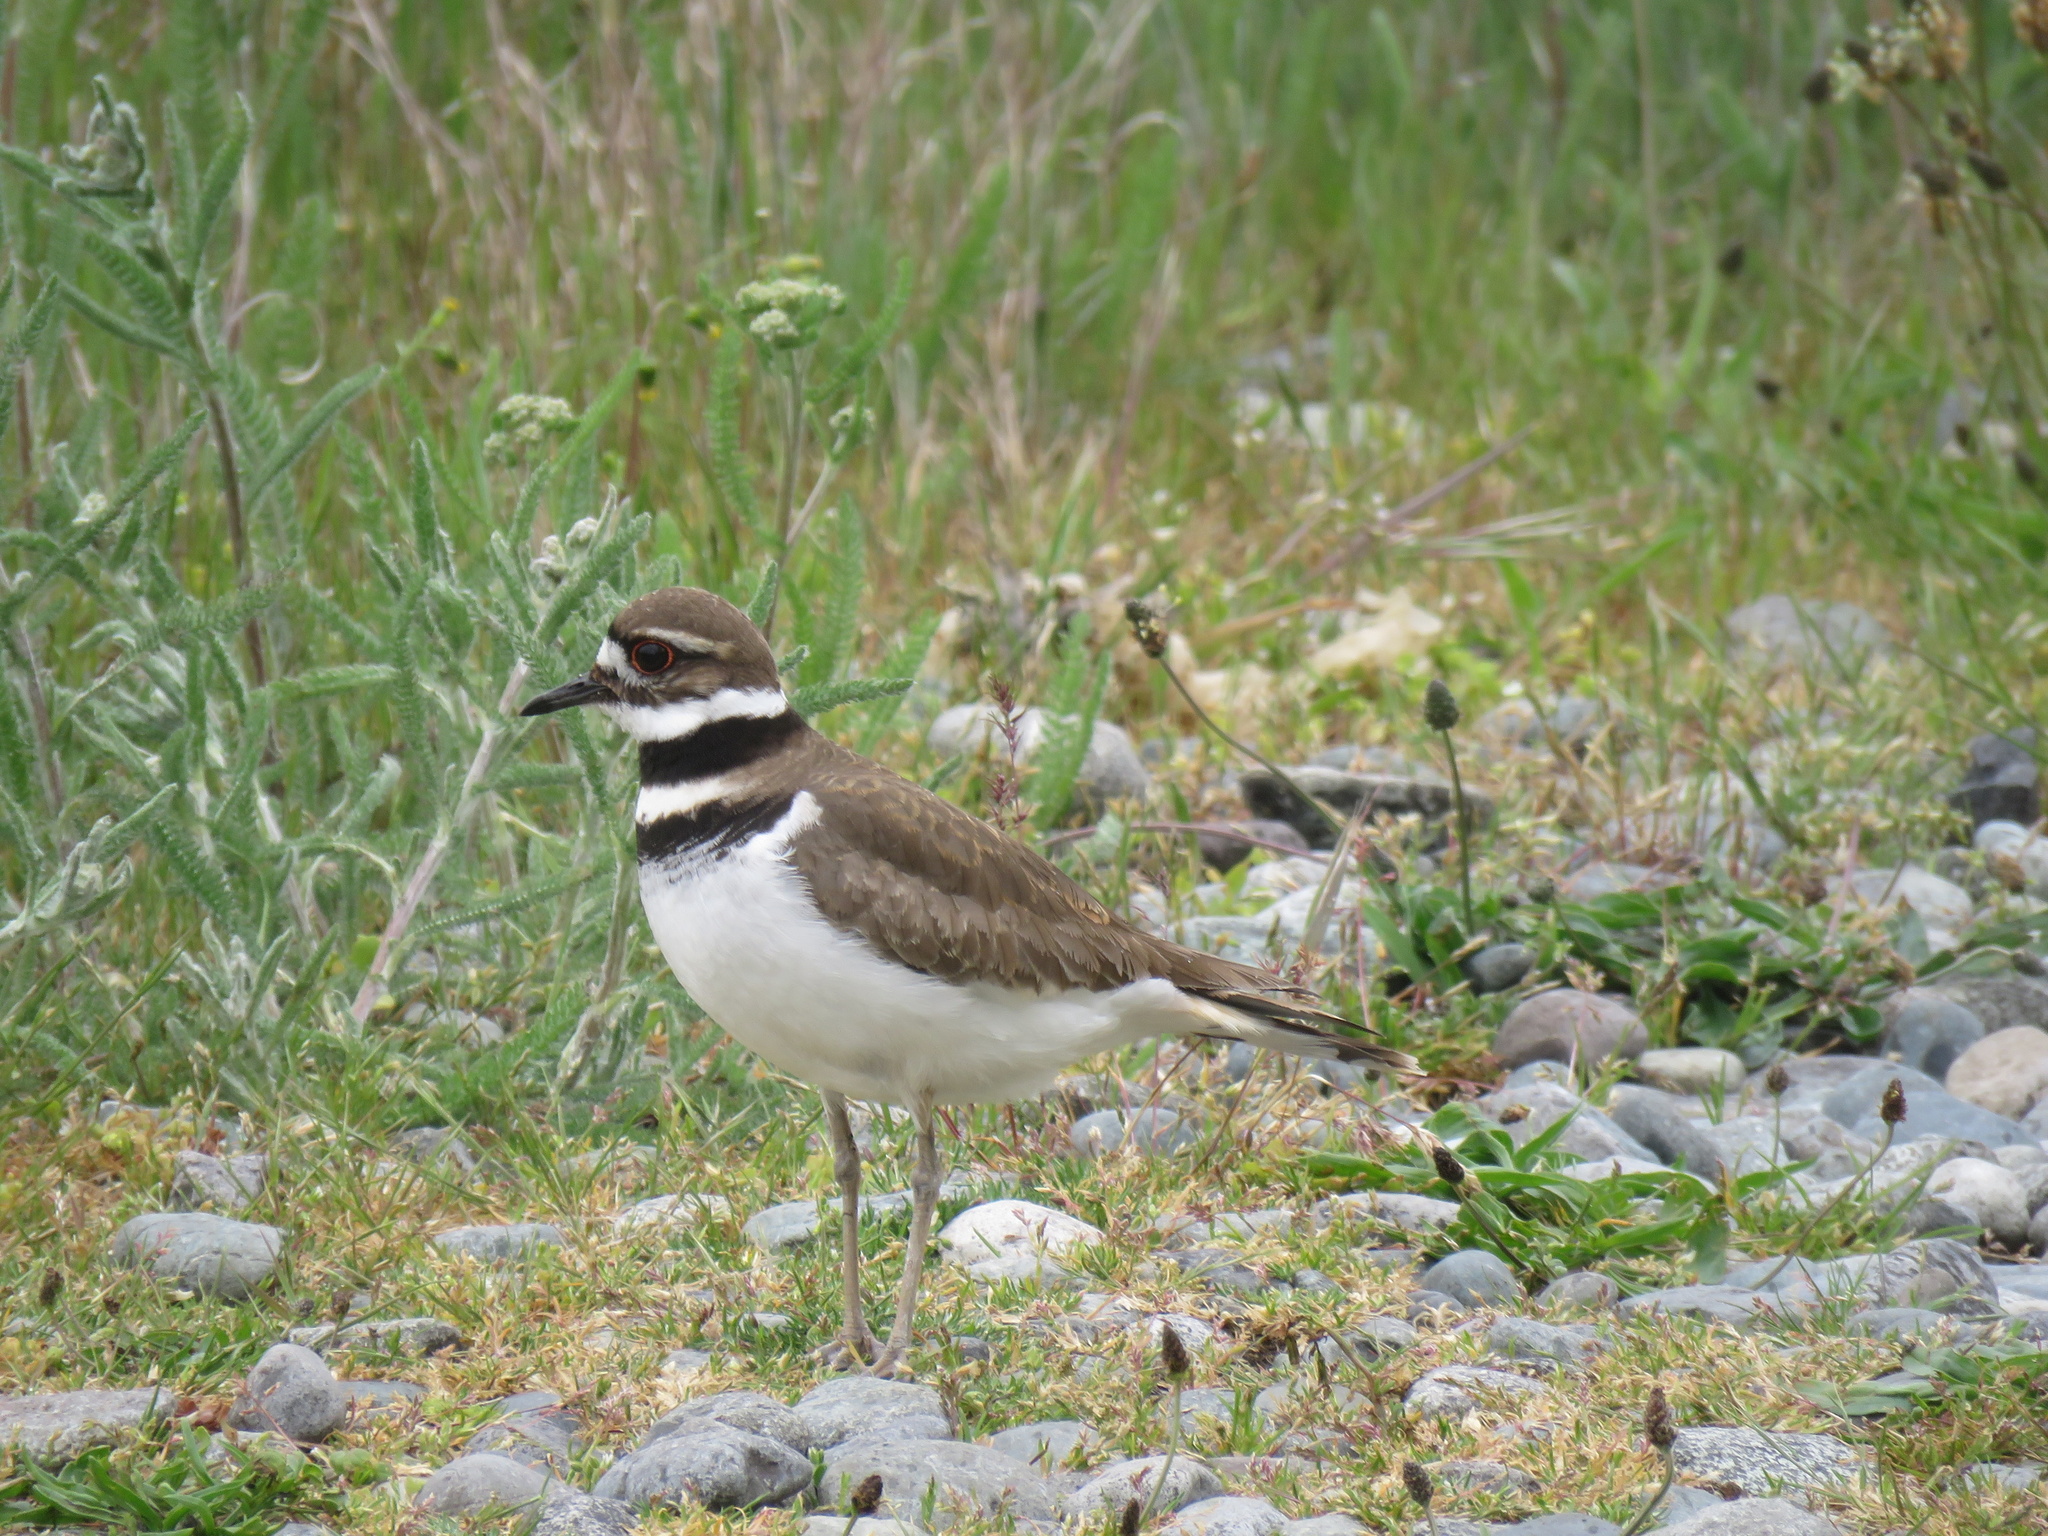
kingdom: Animalia
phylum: Chordata
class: Aves
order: Charadriiformes
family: Charadriidae
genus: Charadrius
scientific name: Charadrius vociferus
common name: Killdeer
